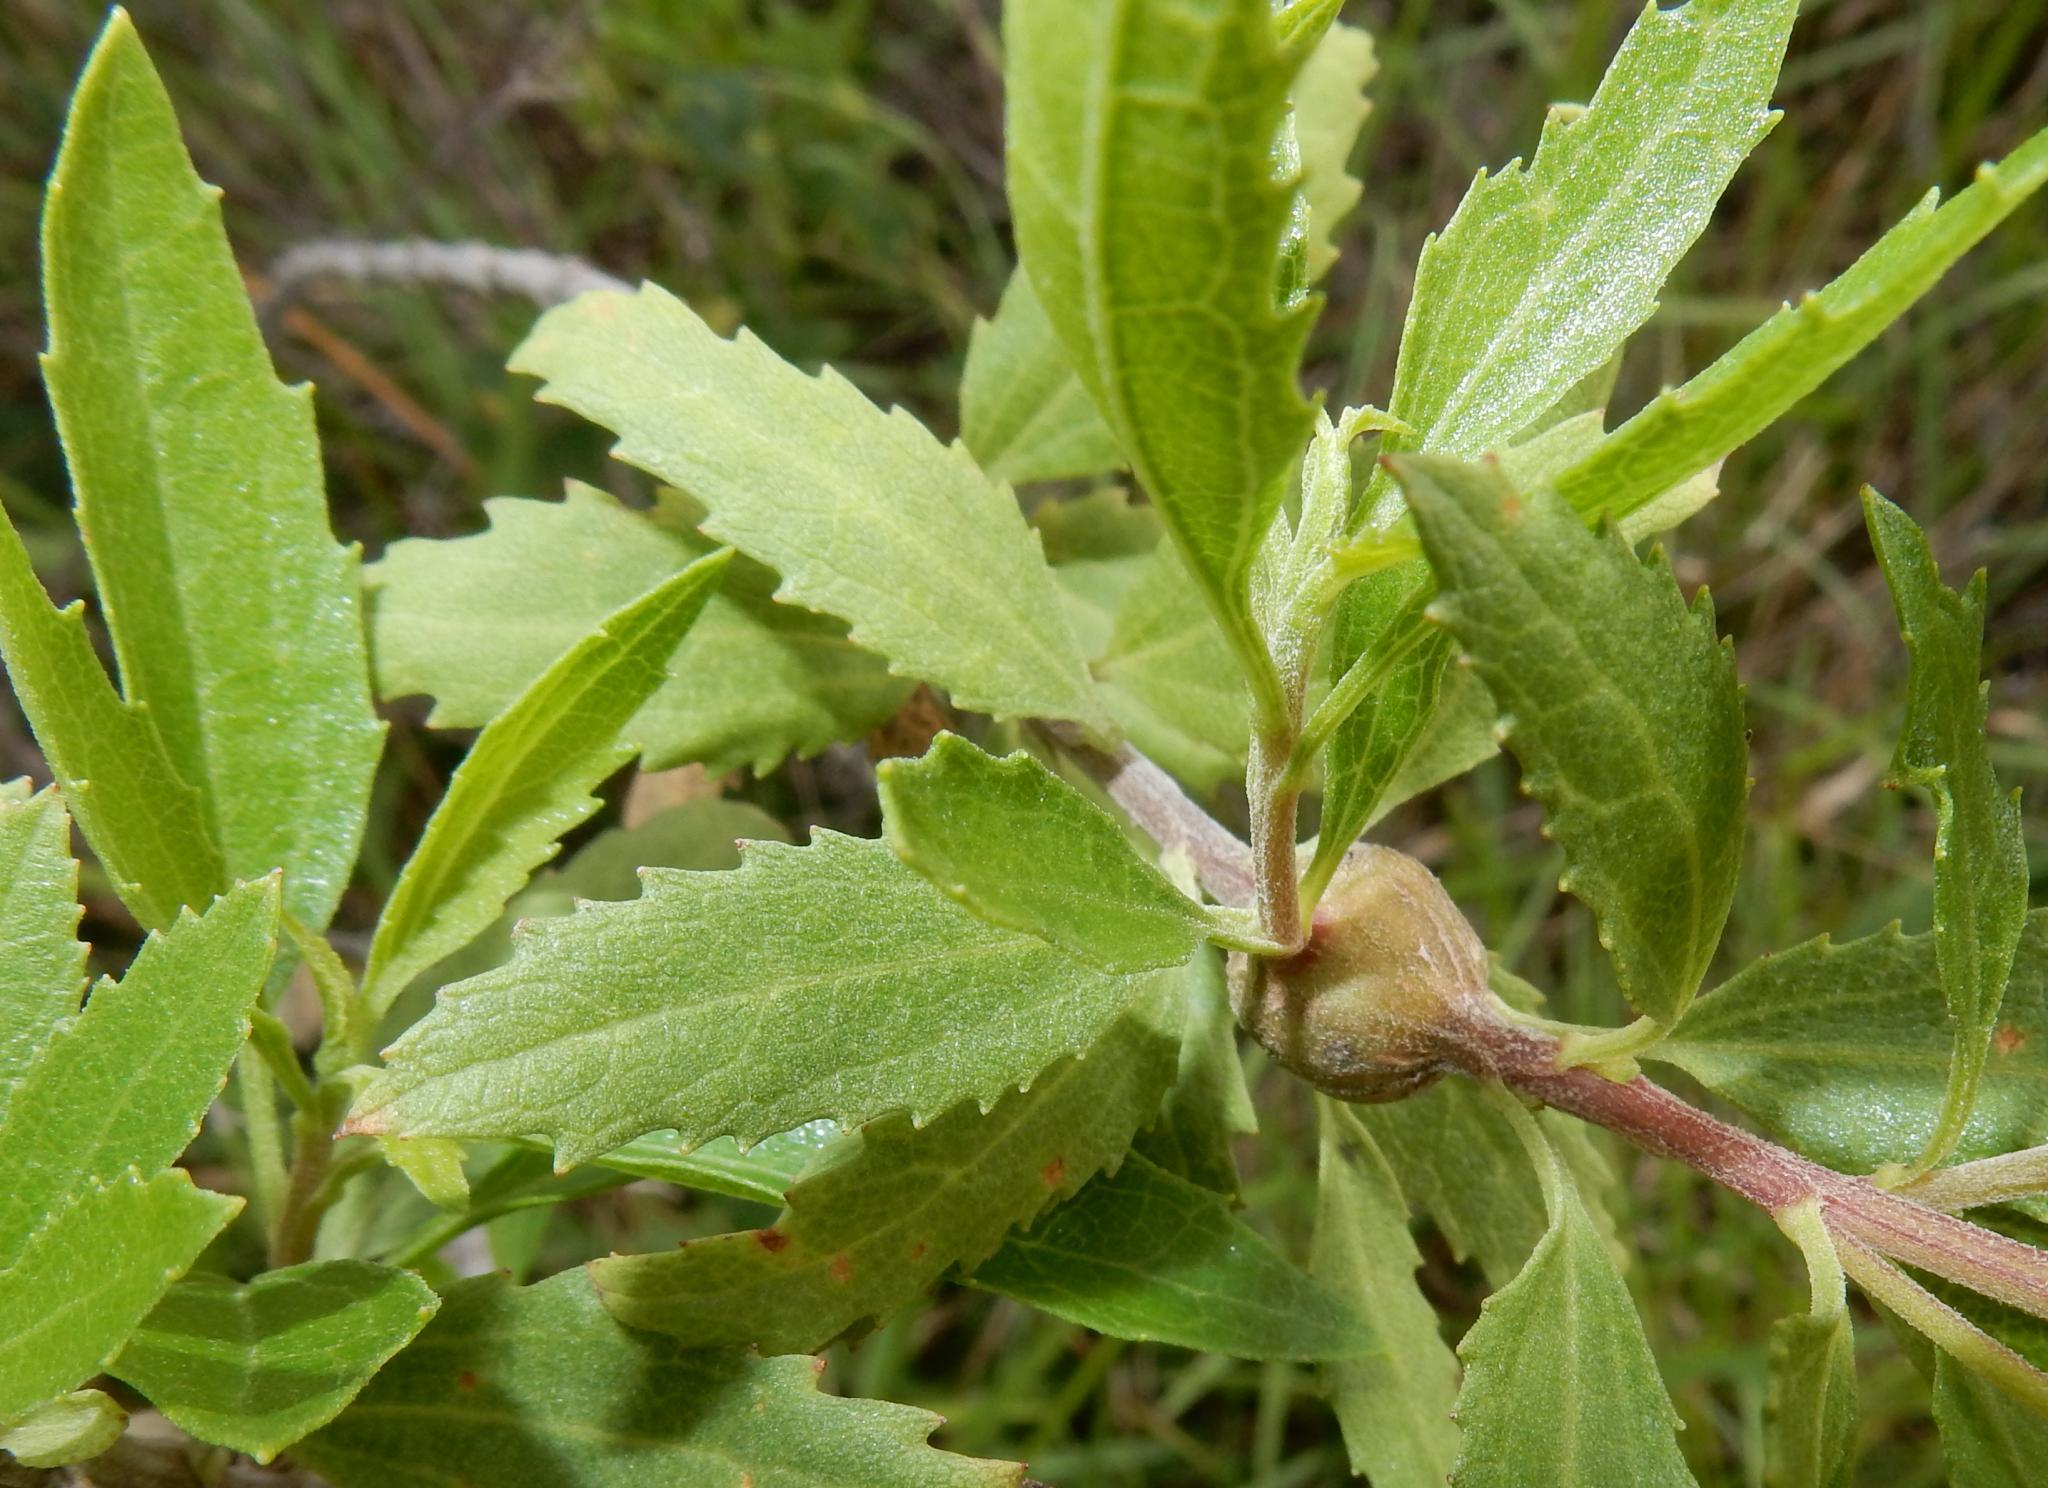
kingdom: Plantae
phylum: Tracheophyta
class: Magnoliopsida
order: Asterales
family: Asteraceae
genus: Nidorella
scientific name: Nidorella ivifolia
